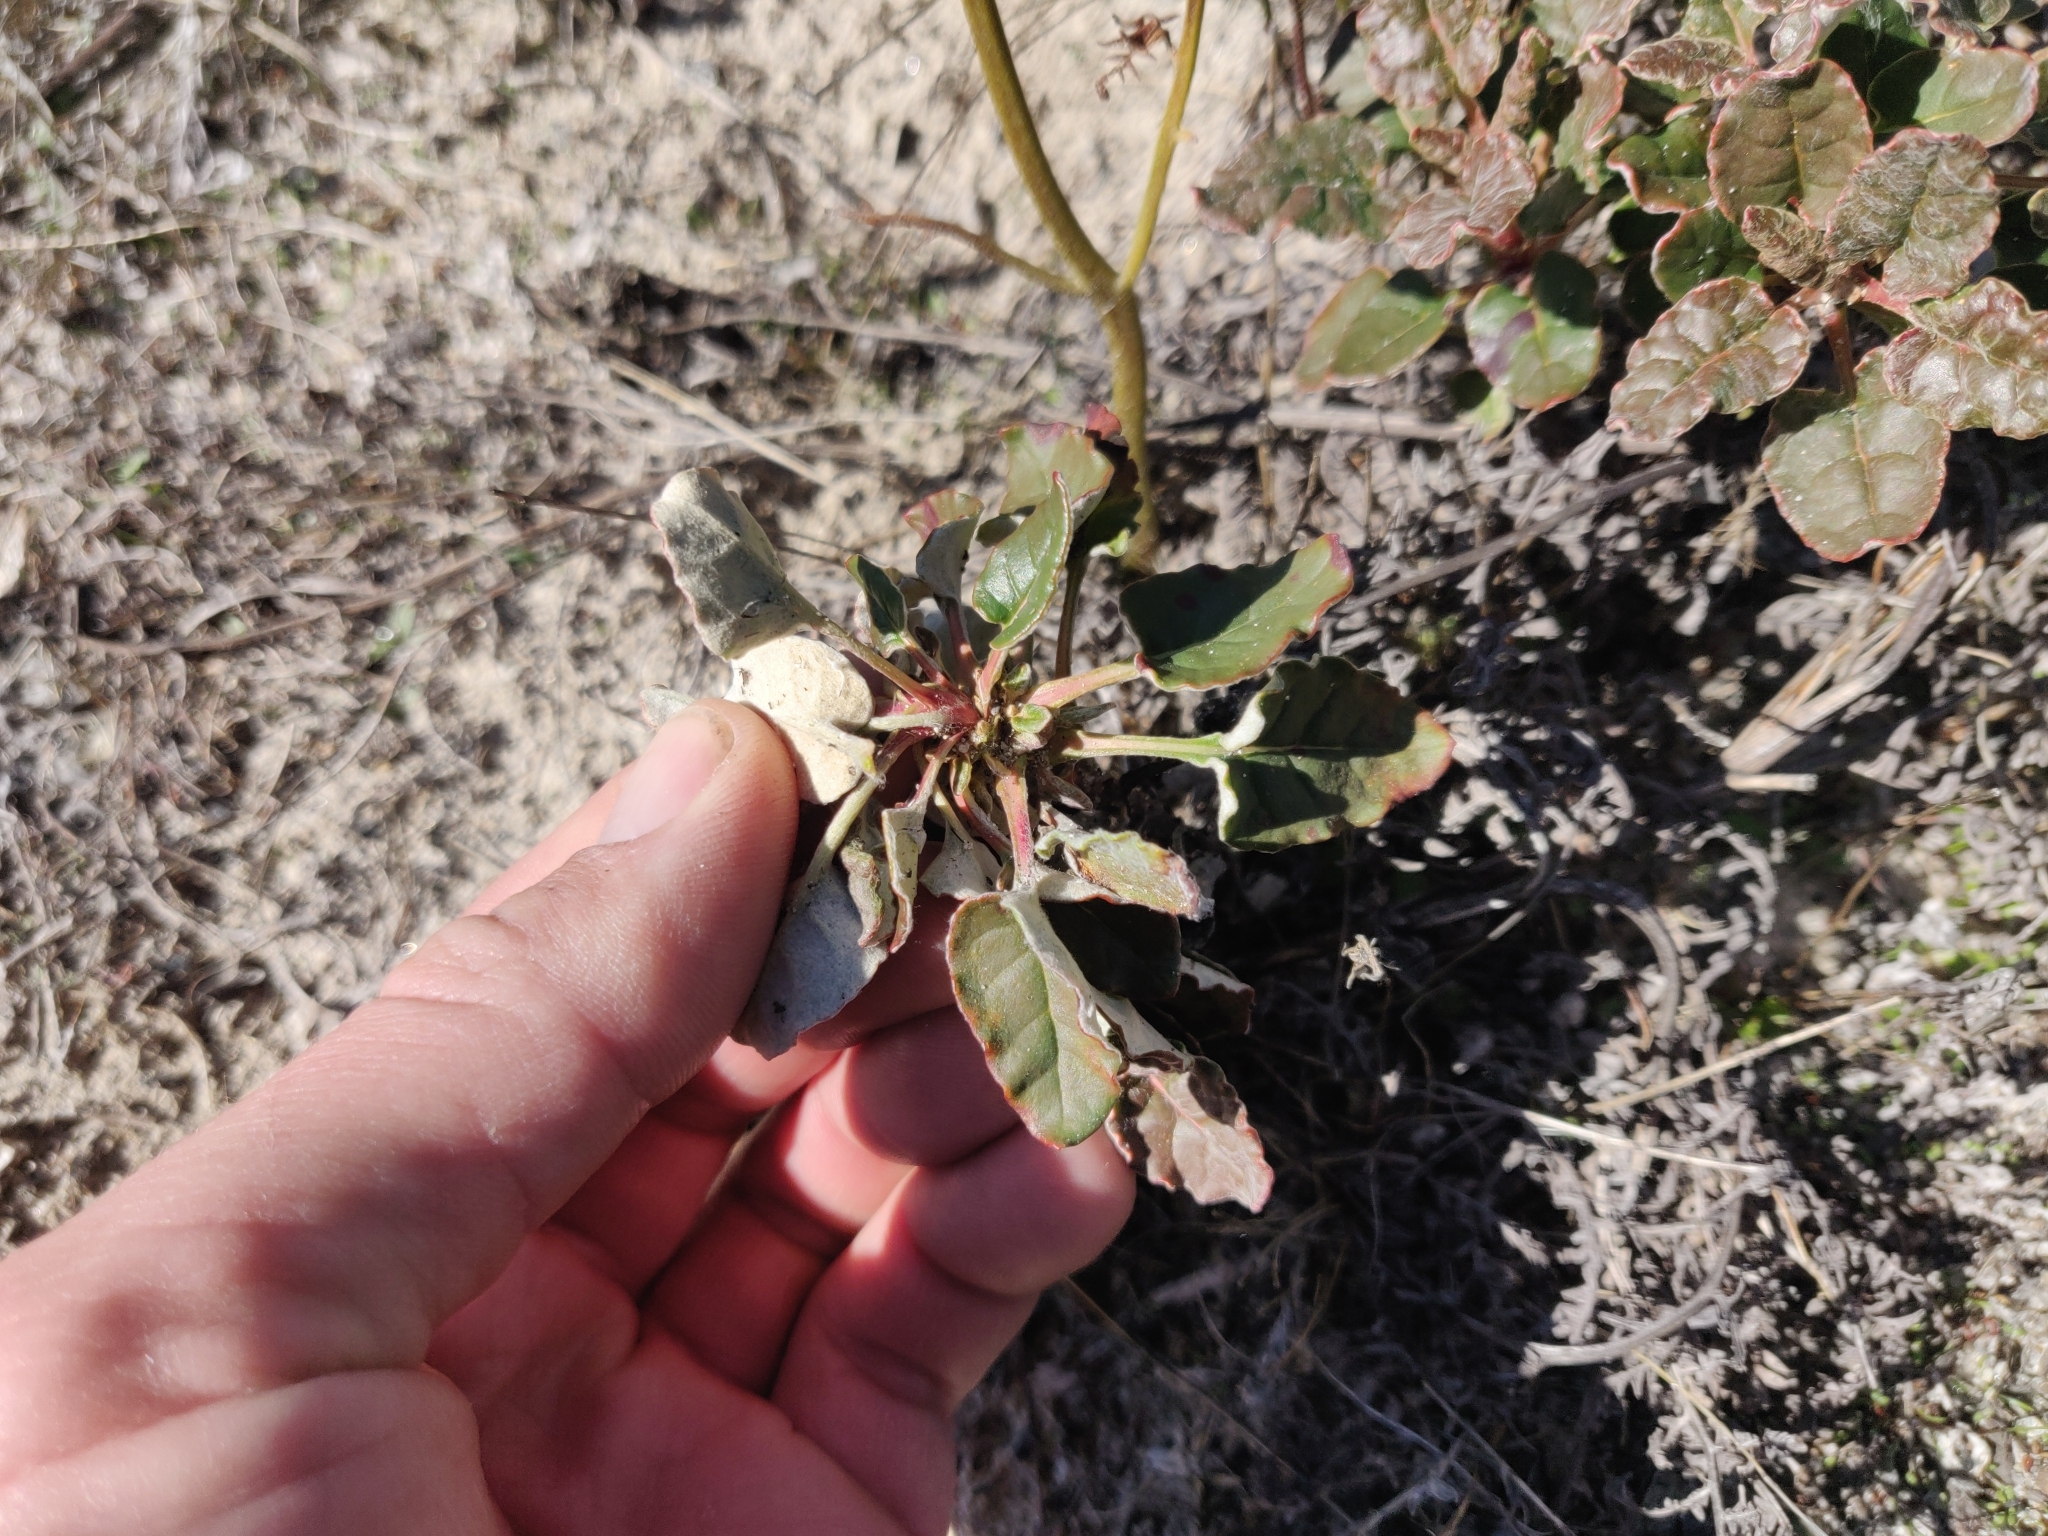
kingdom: Plantae
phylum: Tracheophyta
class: Magnoliopsida
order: Caryophyllales
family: Polygonaceae
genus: Eriogonum
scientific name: Eriogonum nudum
